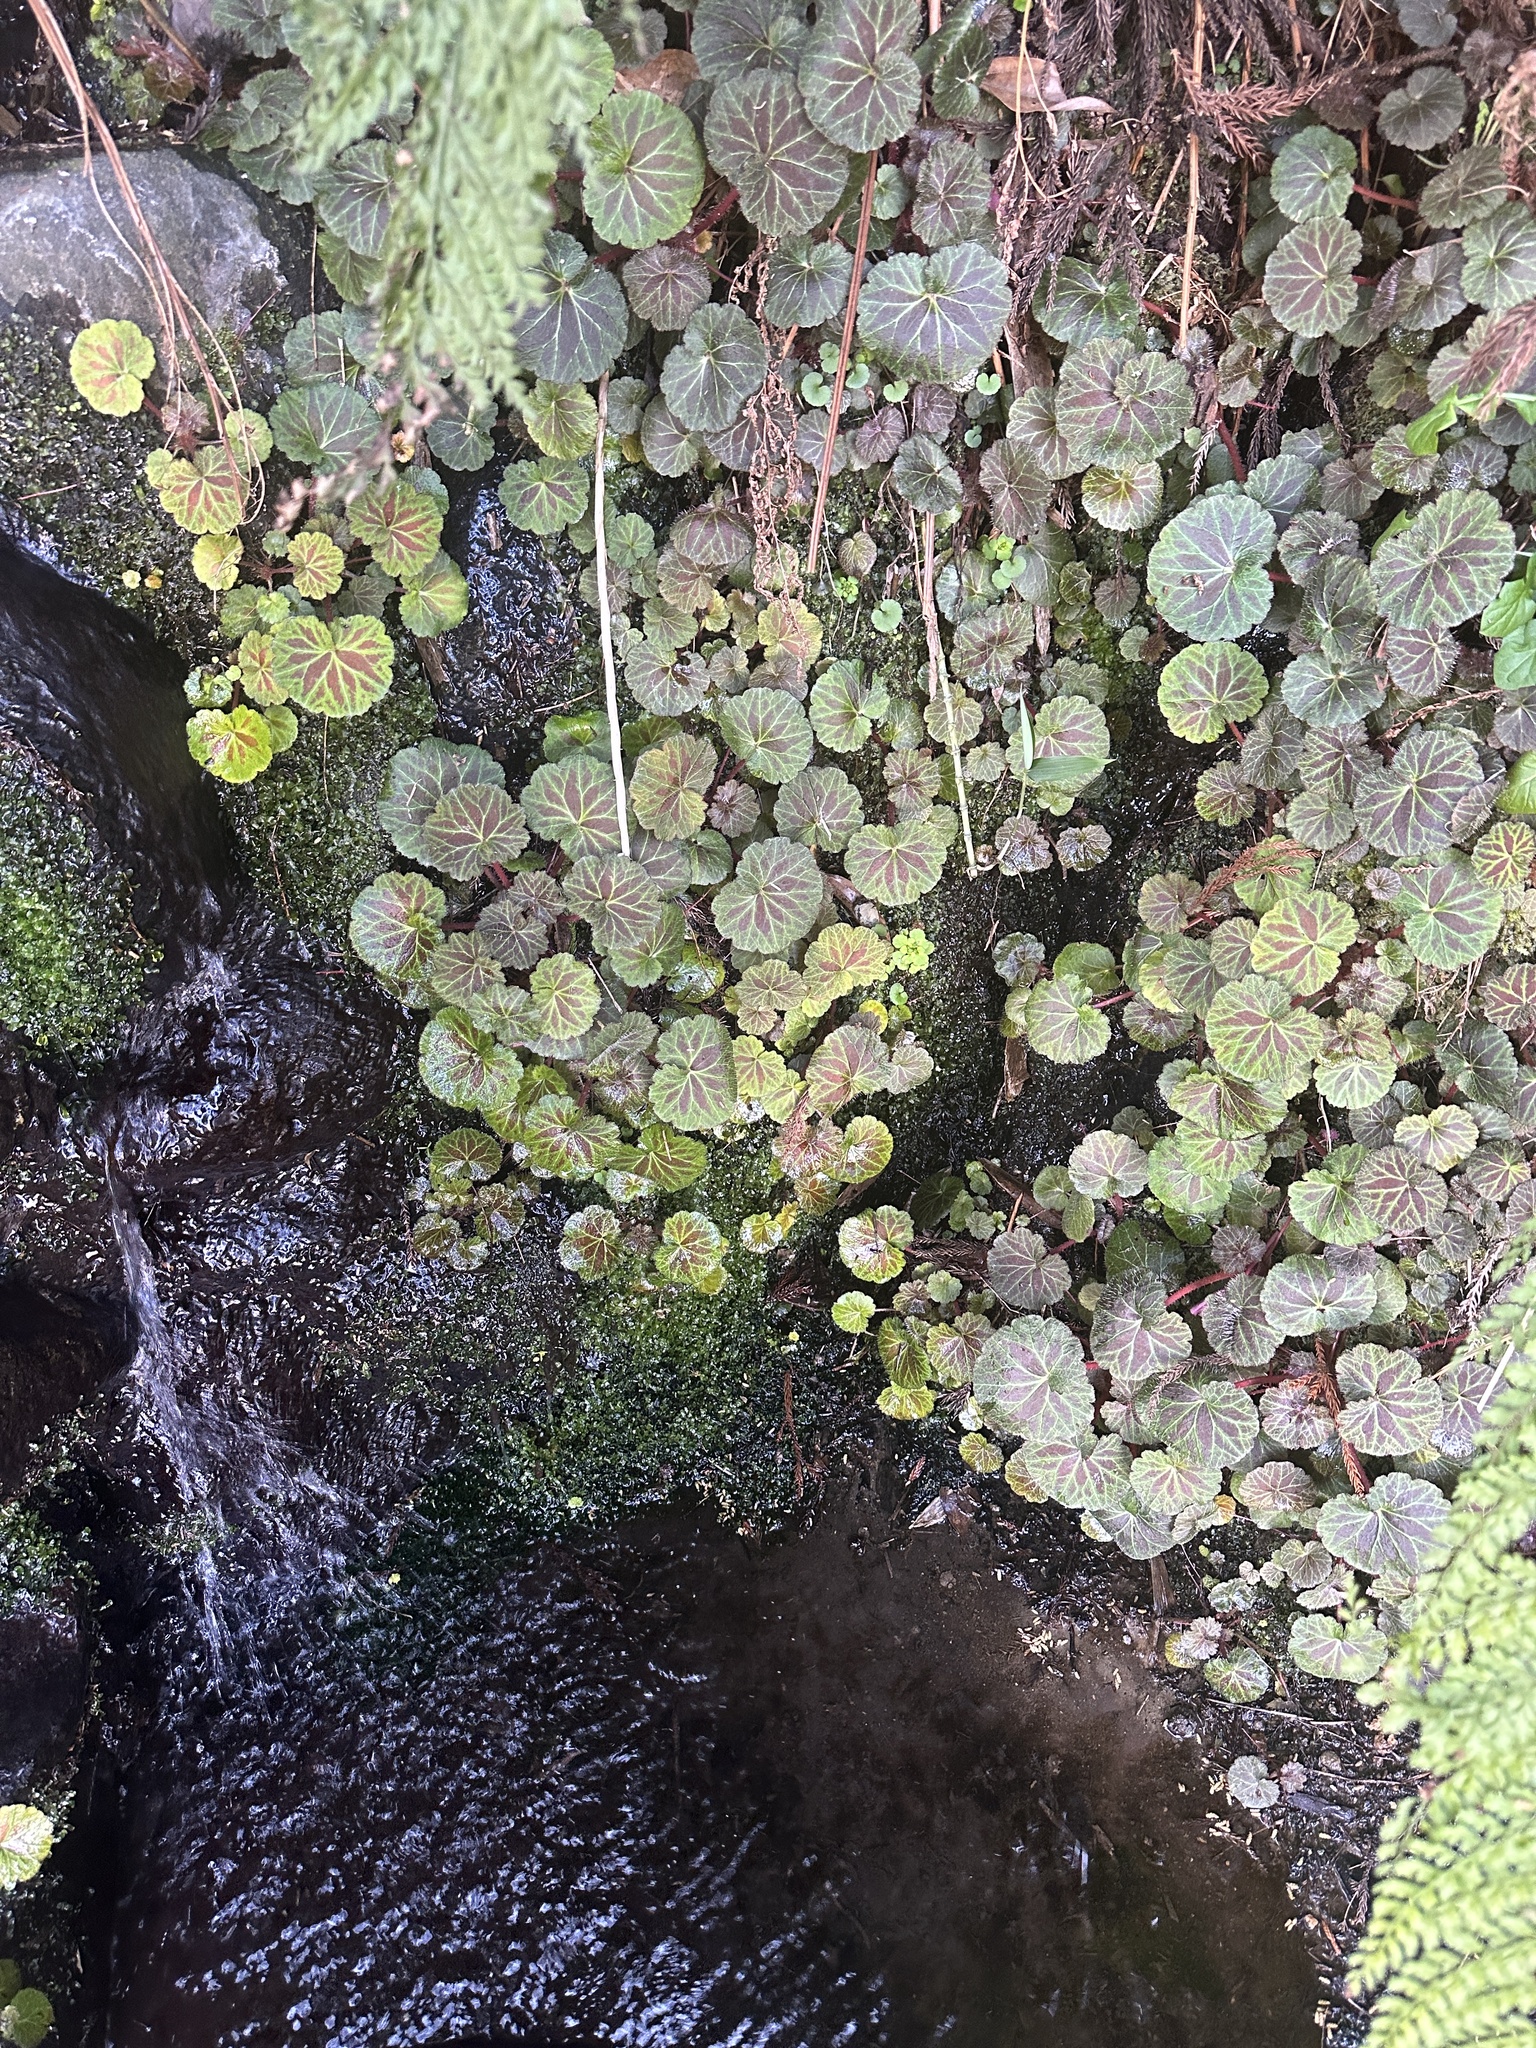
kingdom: Plantae
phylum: Tracheophyta
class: Magnoliopsida
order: Saxifragales
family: Saxifragaceae
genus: Saxifraga
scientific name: Saxifraga stolonifera
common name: Creeping saxifrage
